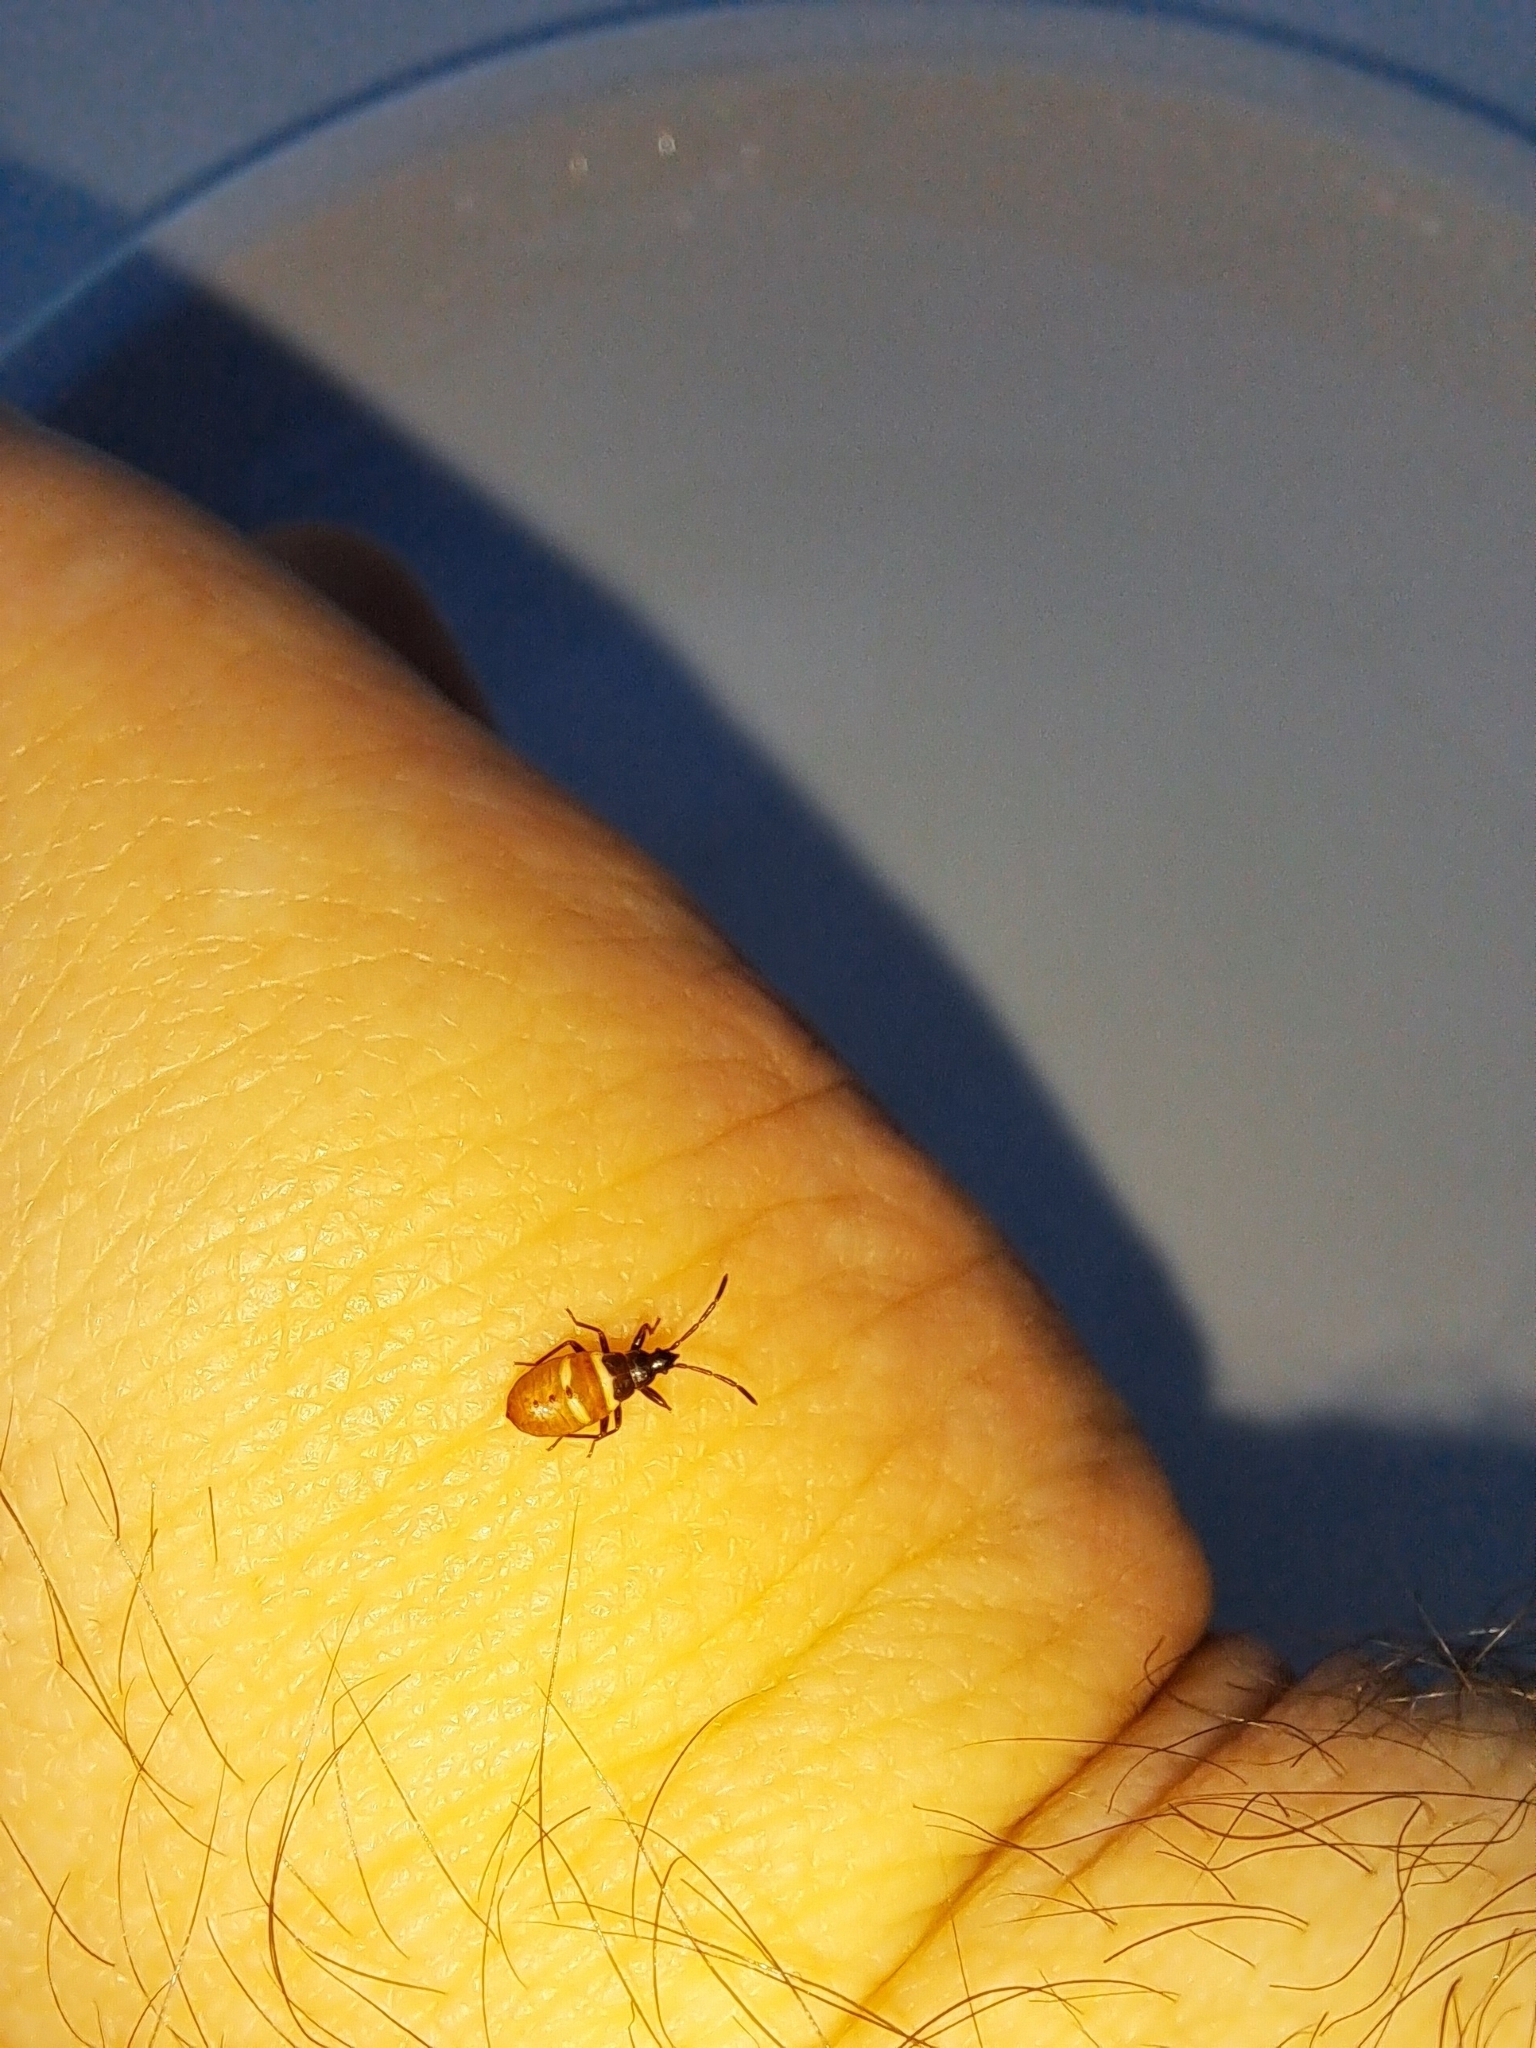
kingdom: Animalia
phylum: Arthropoda
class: Insecta
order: Hemiptera
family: Rhyparochromidae
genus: Gastrodes
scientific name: Gastrodes grossipes
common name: Pine cone bug
